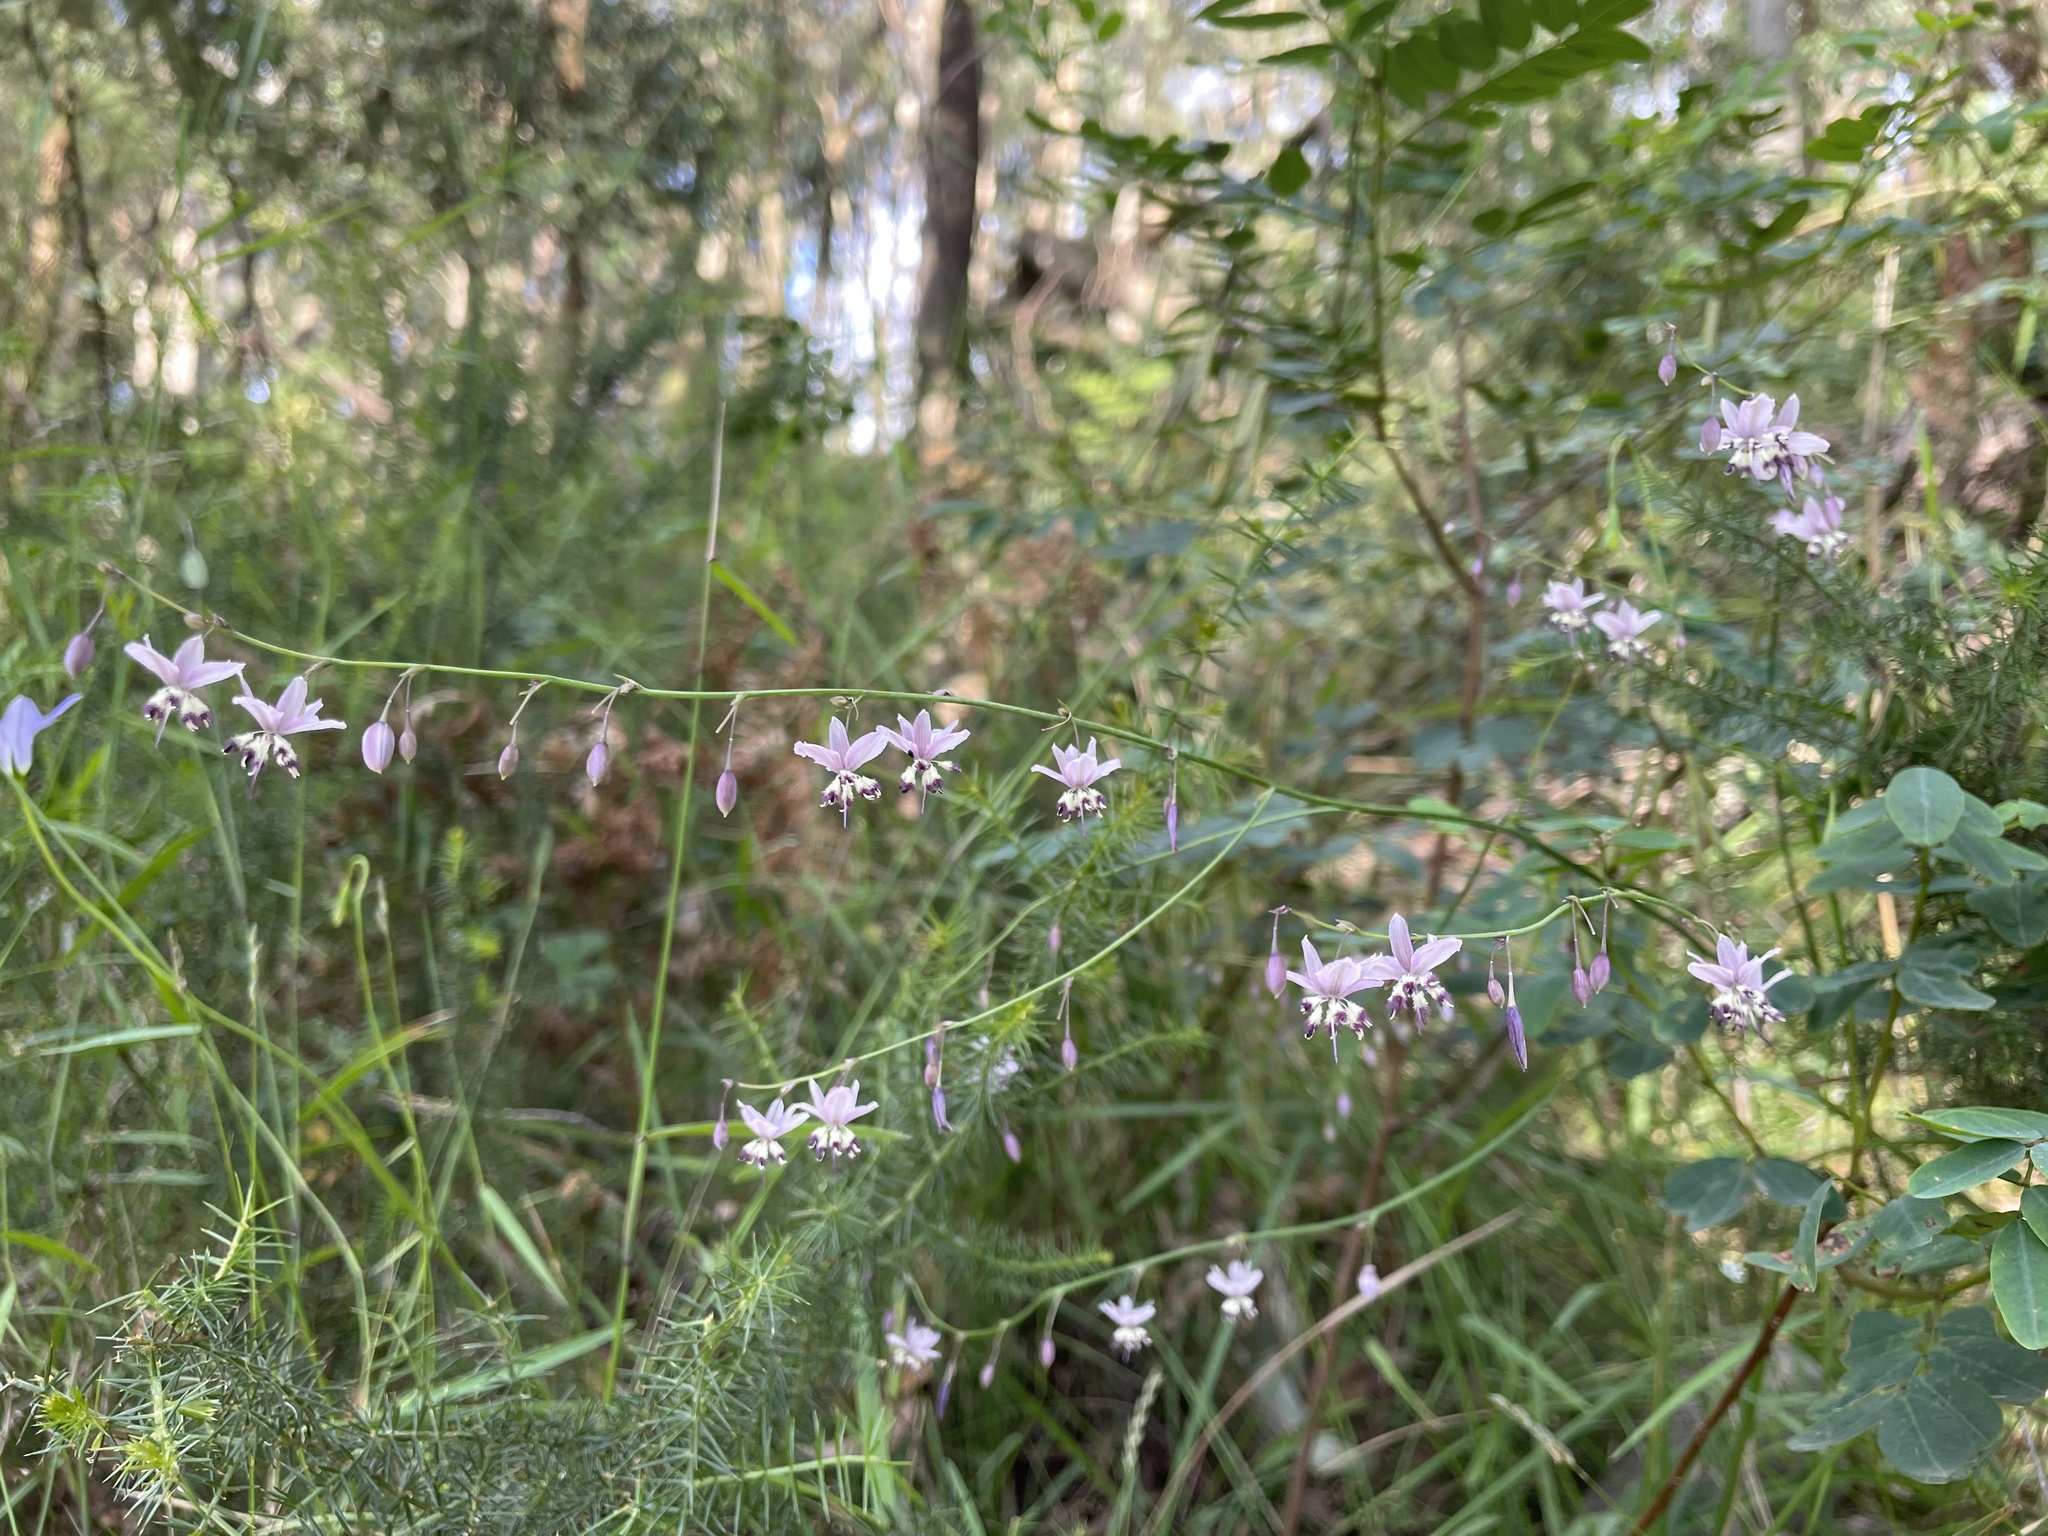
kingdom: Plantae
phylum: Tracheophyta
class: Liliopsida
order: Asparagales
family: Asparagaceae
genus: Arthropodium
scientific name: Arthropodium milleflorum
